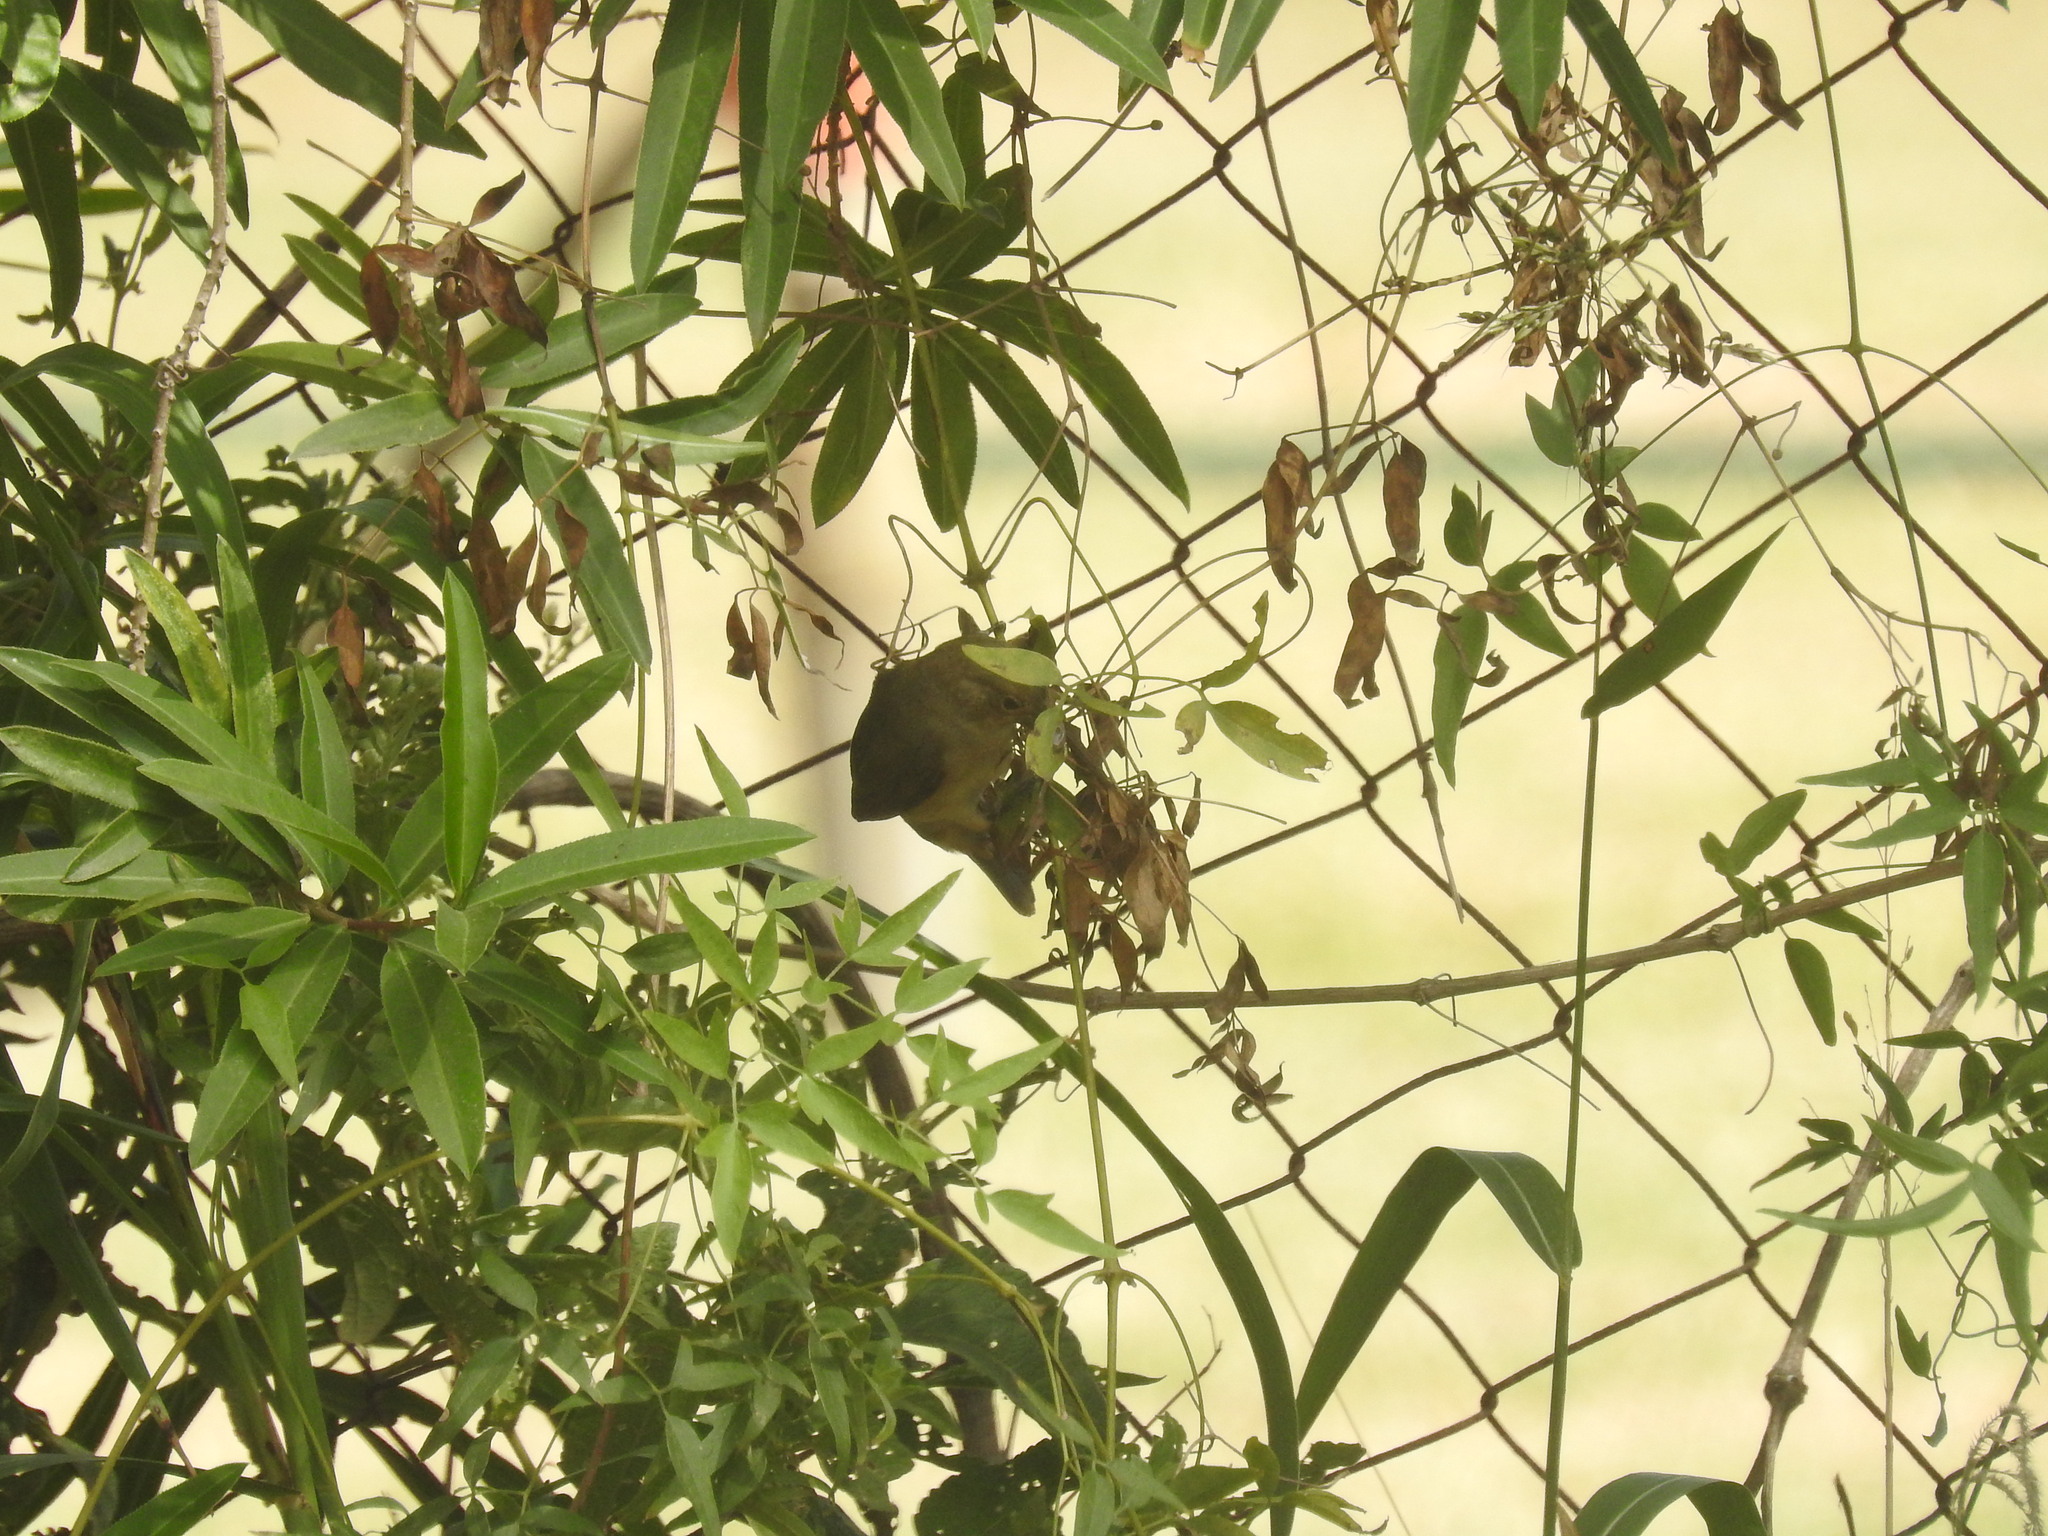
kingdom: Animalia
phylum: Chordata
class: Aves
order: Passeriformes
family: Thraupidae
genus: Sporophila
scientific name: Sporophila caerulescens
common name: Double-collared seedeater
